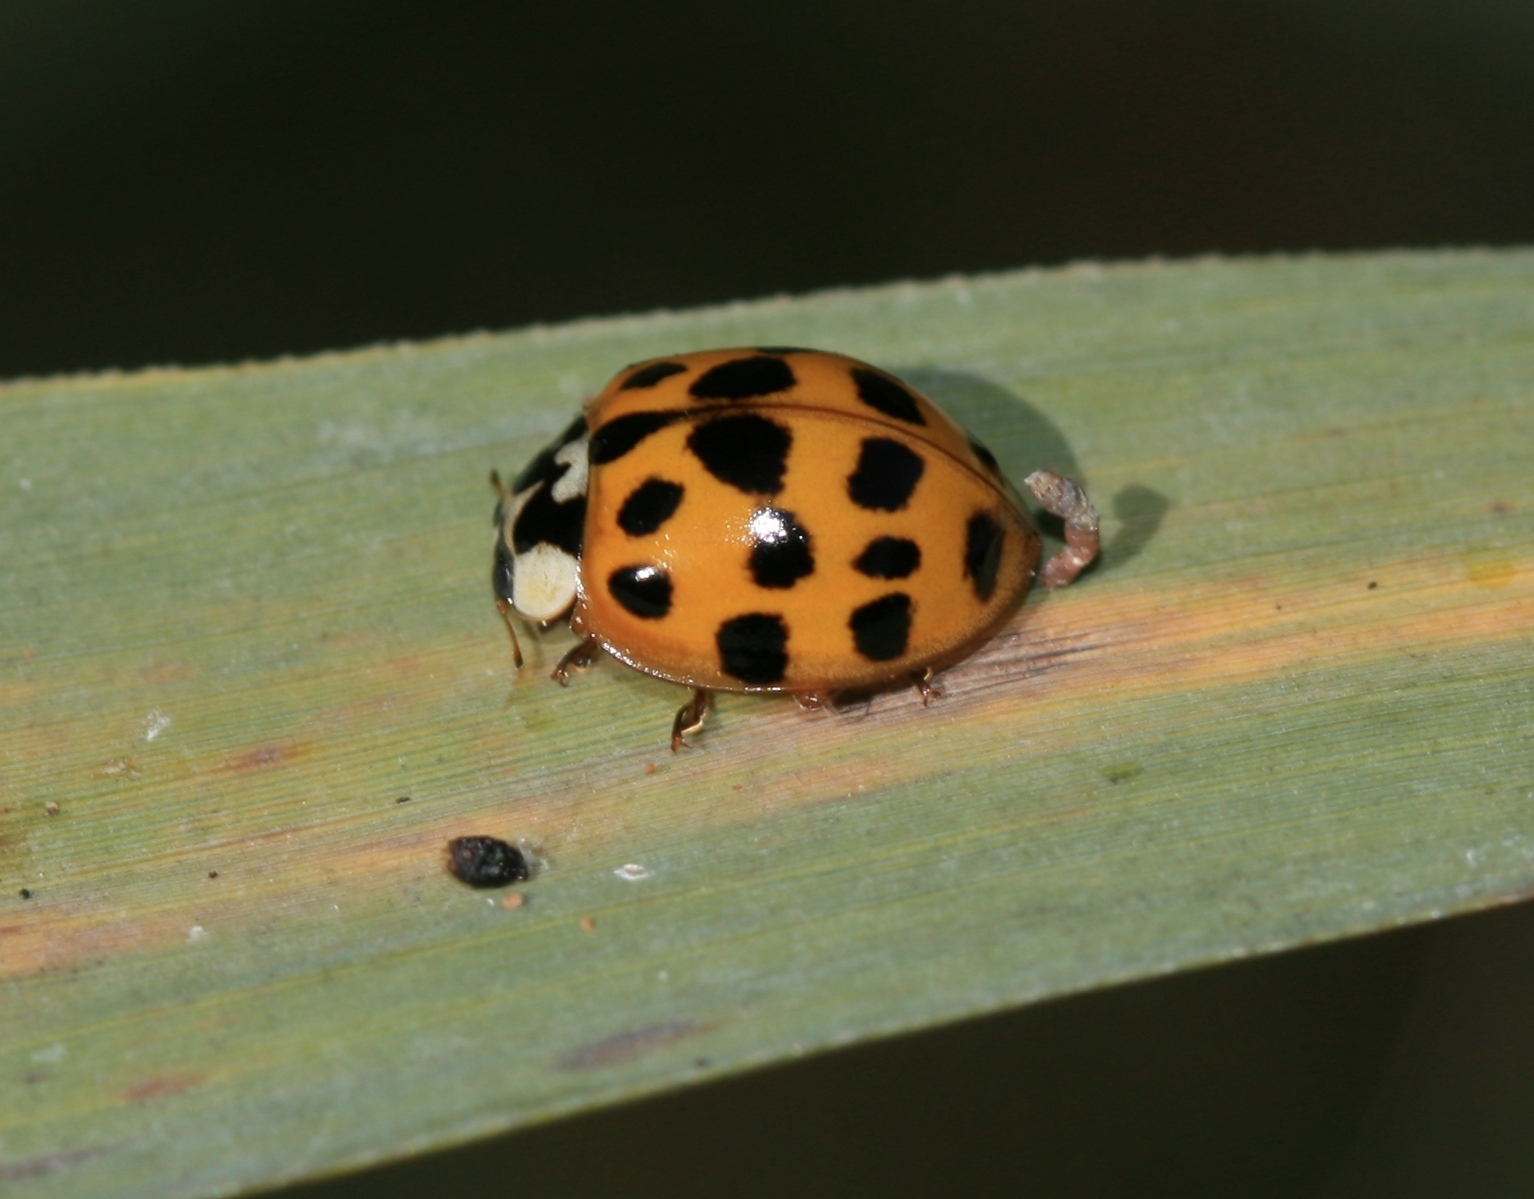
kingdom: Animalia
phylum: Arthropoda
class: Insecta
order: Coleoptera
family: Coccinellidae
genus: Harmonia
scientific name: Harmonia axyridis
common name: Harlequin ladybird
